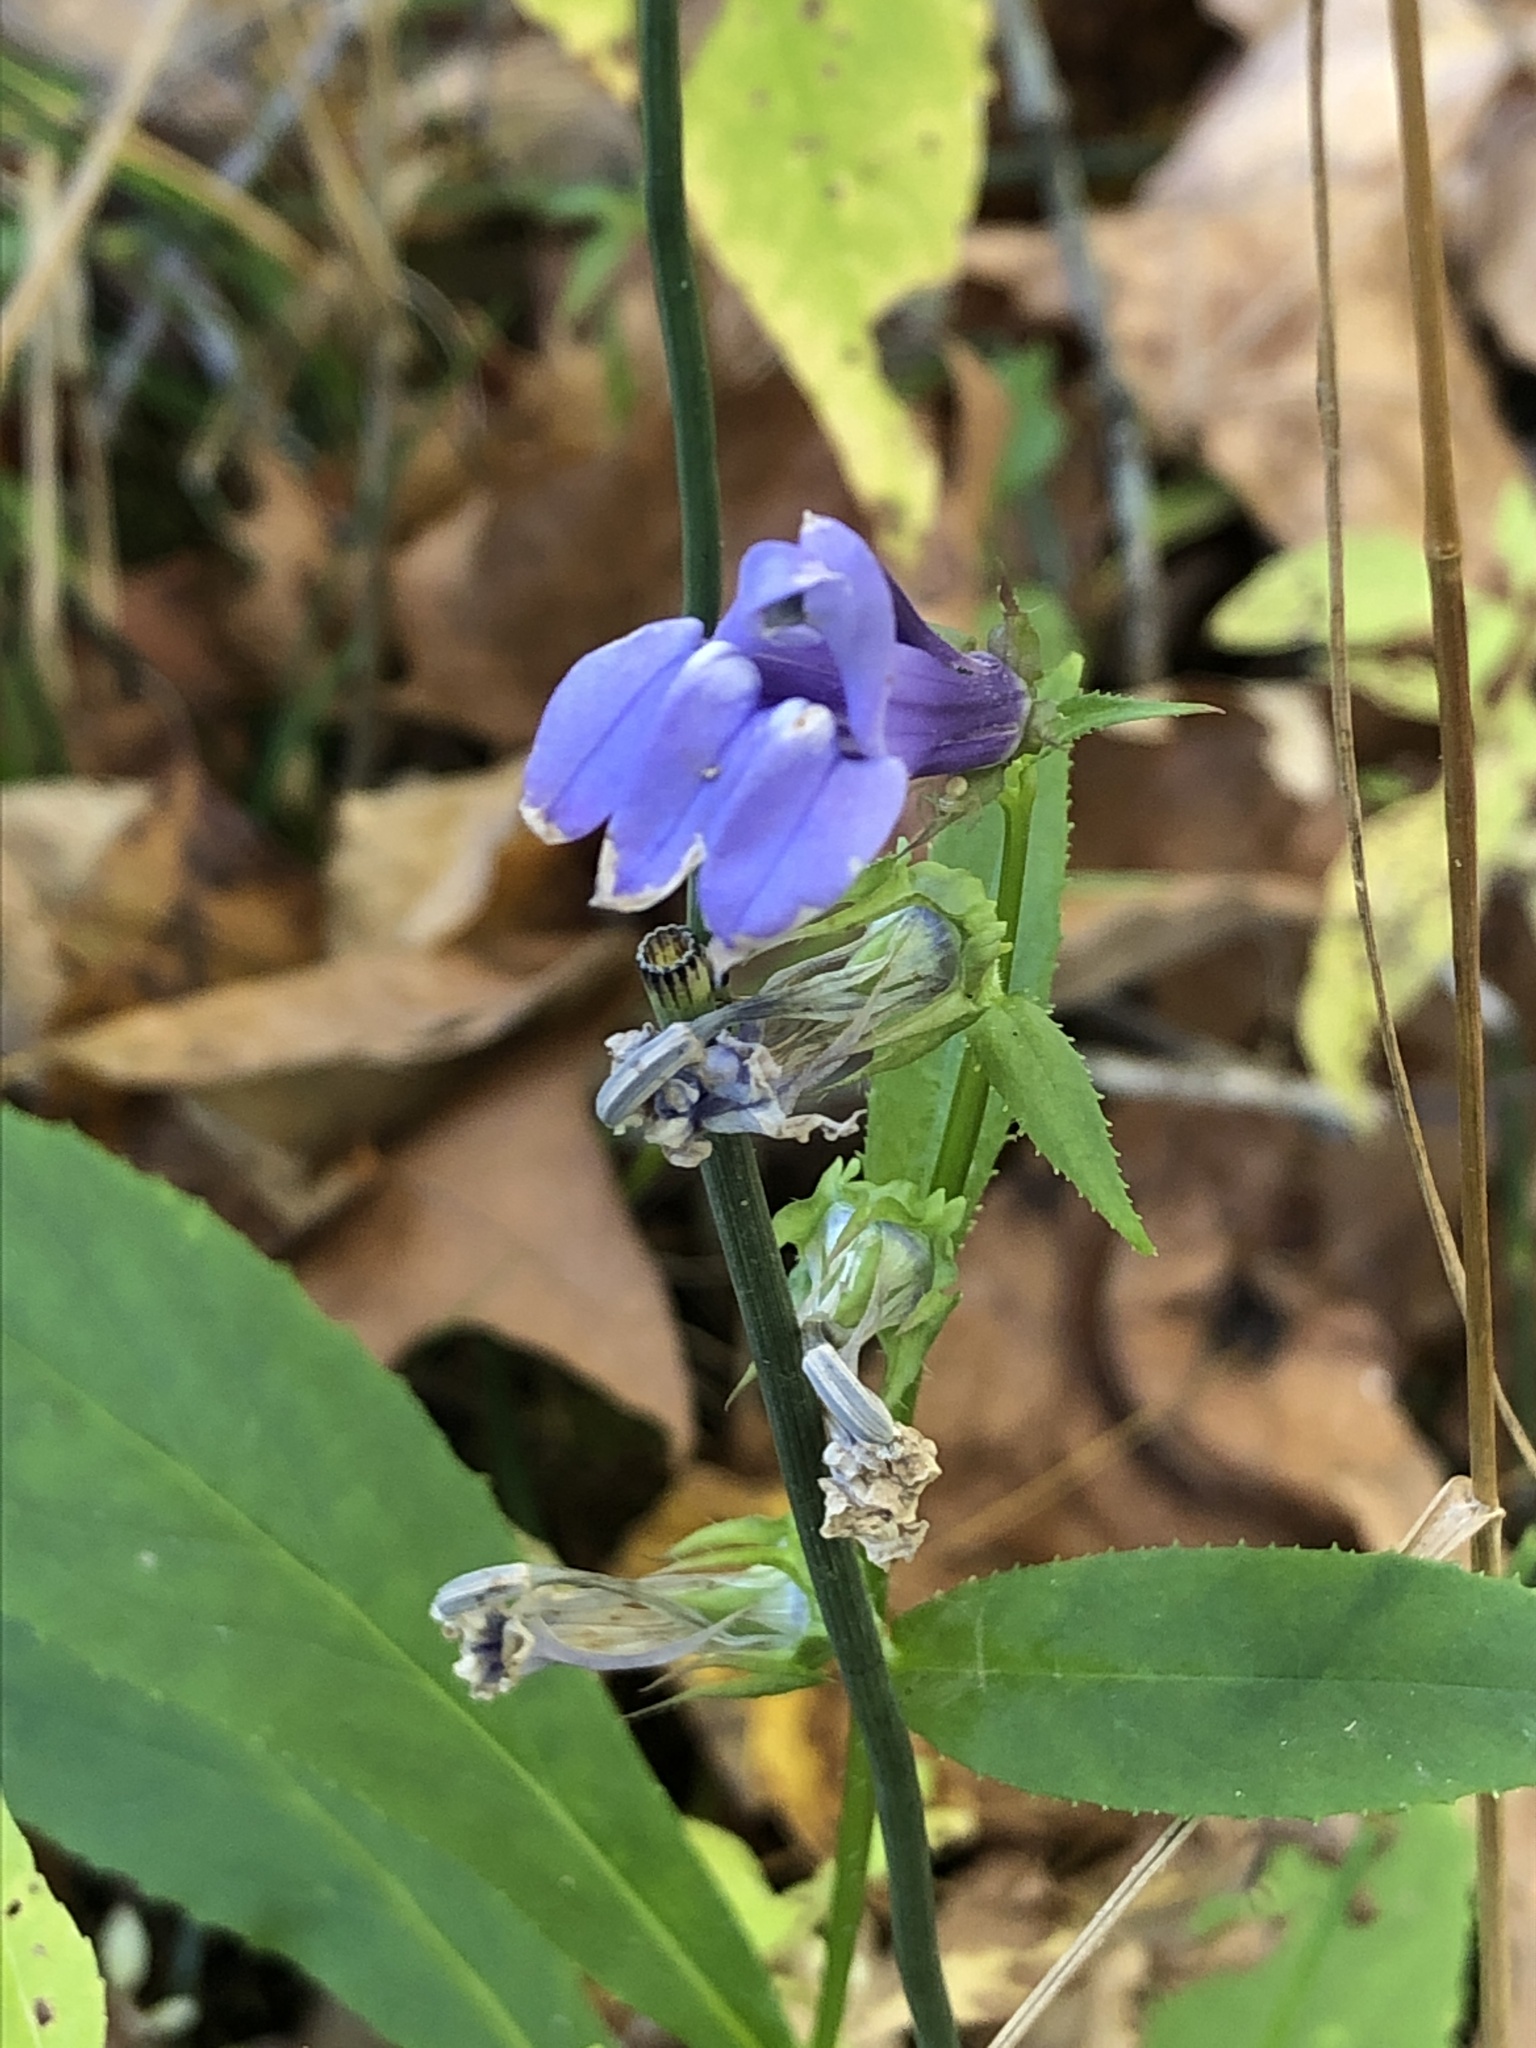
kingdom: Plantae
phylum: Tracheophyta
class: Magnoliopsida
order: Asterales
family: Campanulaceae
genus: Lobelia
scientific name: Lobelia siphilitica
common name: Great lobelia
